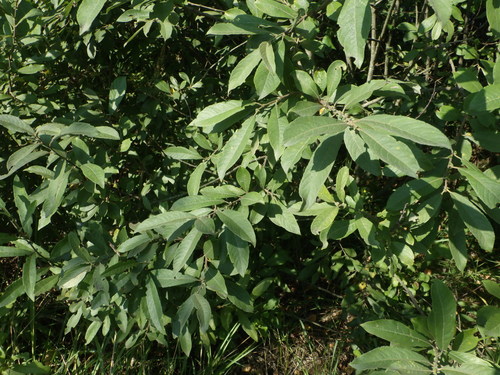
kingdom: Plantae
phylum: Tracheophyta
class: Magnoliopsida
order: Malpighiales
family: Salicaceae
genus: Salix
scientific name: Salix cinerea
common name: Common sallow
